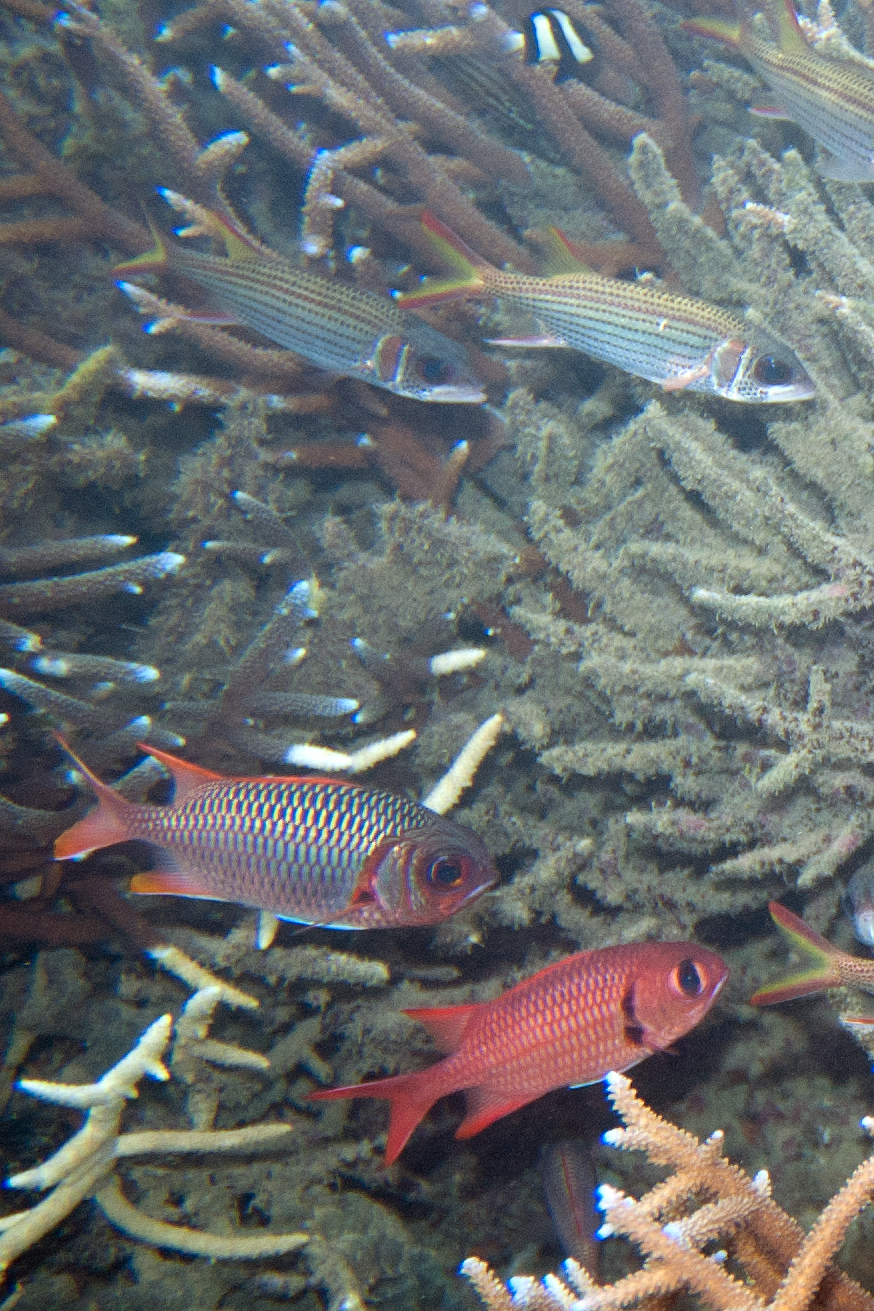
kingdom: Animalia
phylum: Chordata
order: Beryciformes
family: Holocentridae
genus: Myripristis
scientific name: Myripristis violacea
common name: Lattice soldierfish
